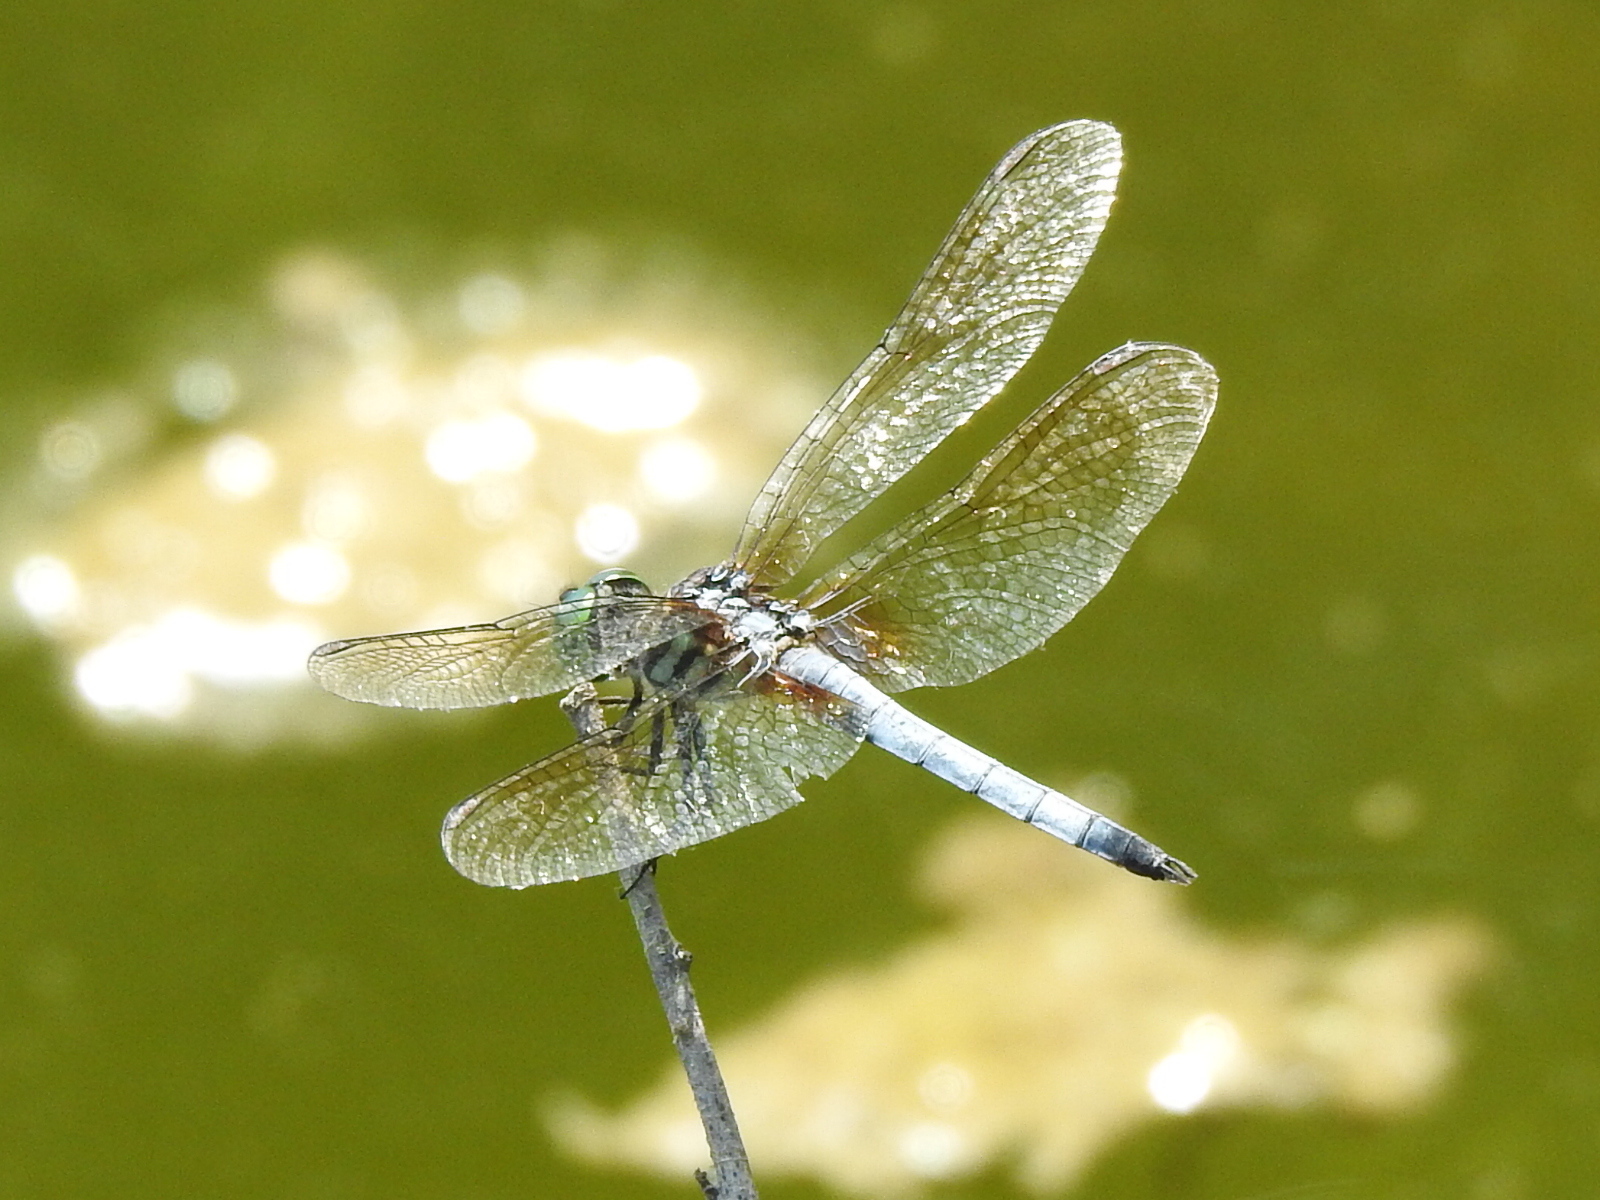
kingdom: Animalia
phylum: Arthropoda
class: Insecta
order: Odonata
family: Libellulidae
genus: Pachydiplax
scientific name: Pachydiplax longipennis
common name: Blue dasher
